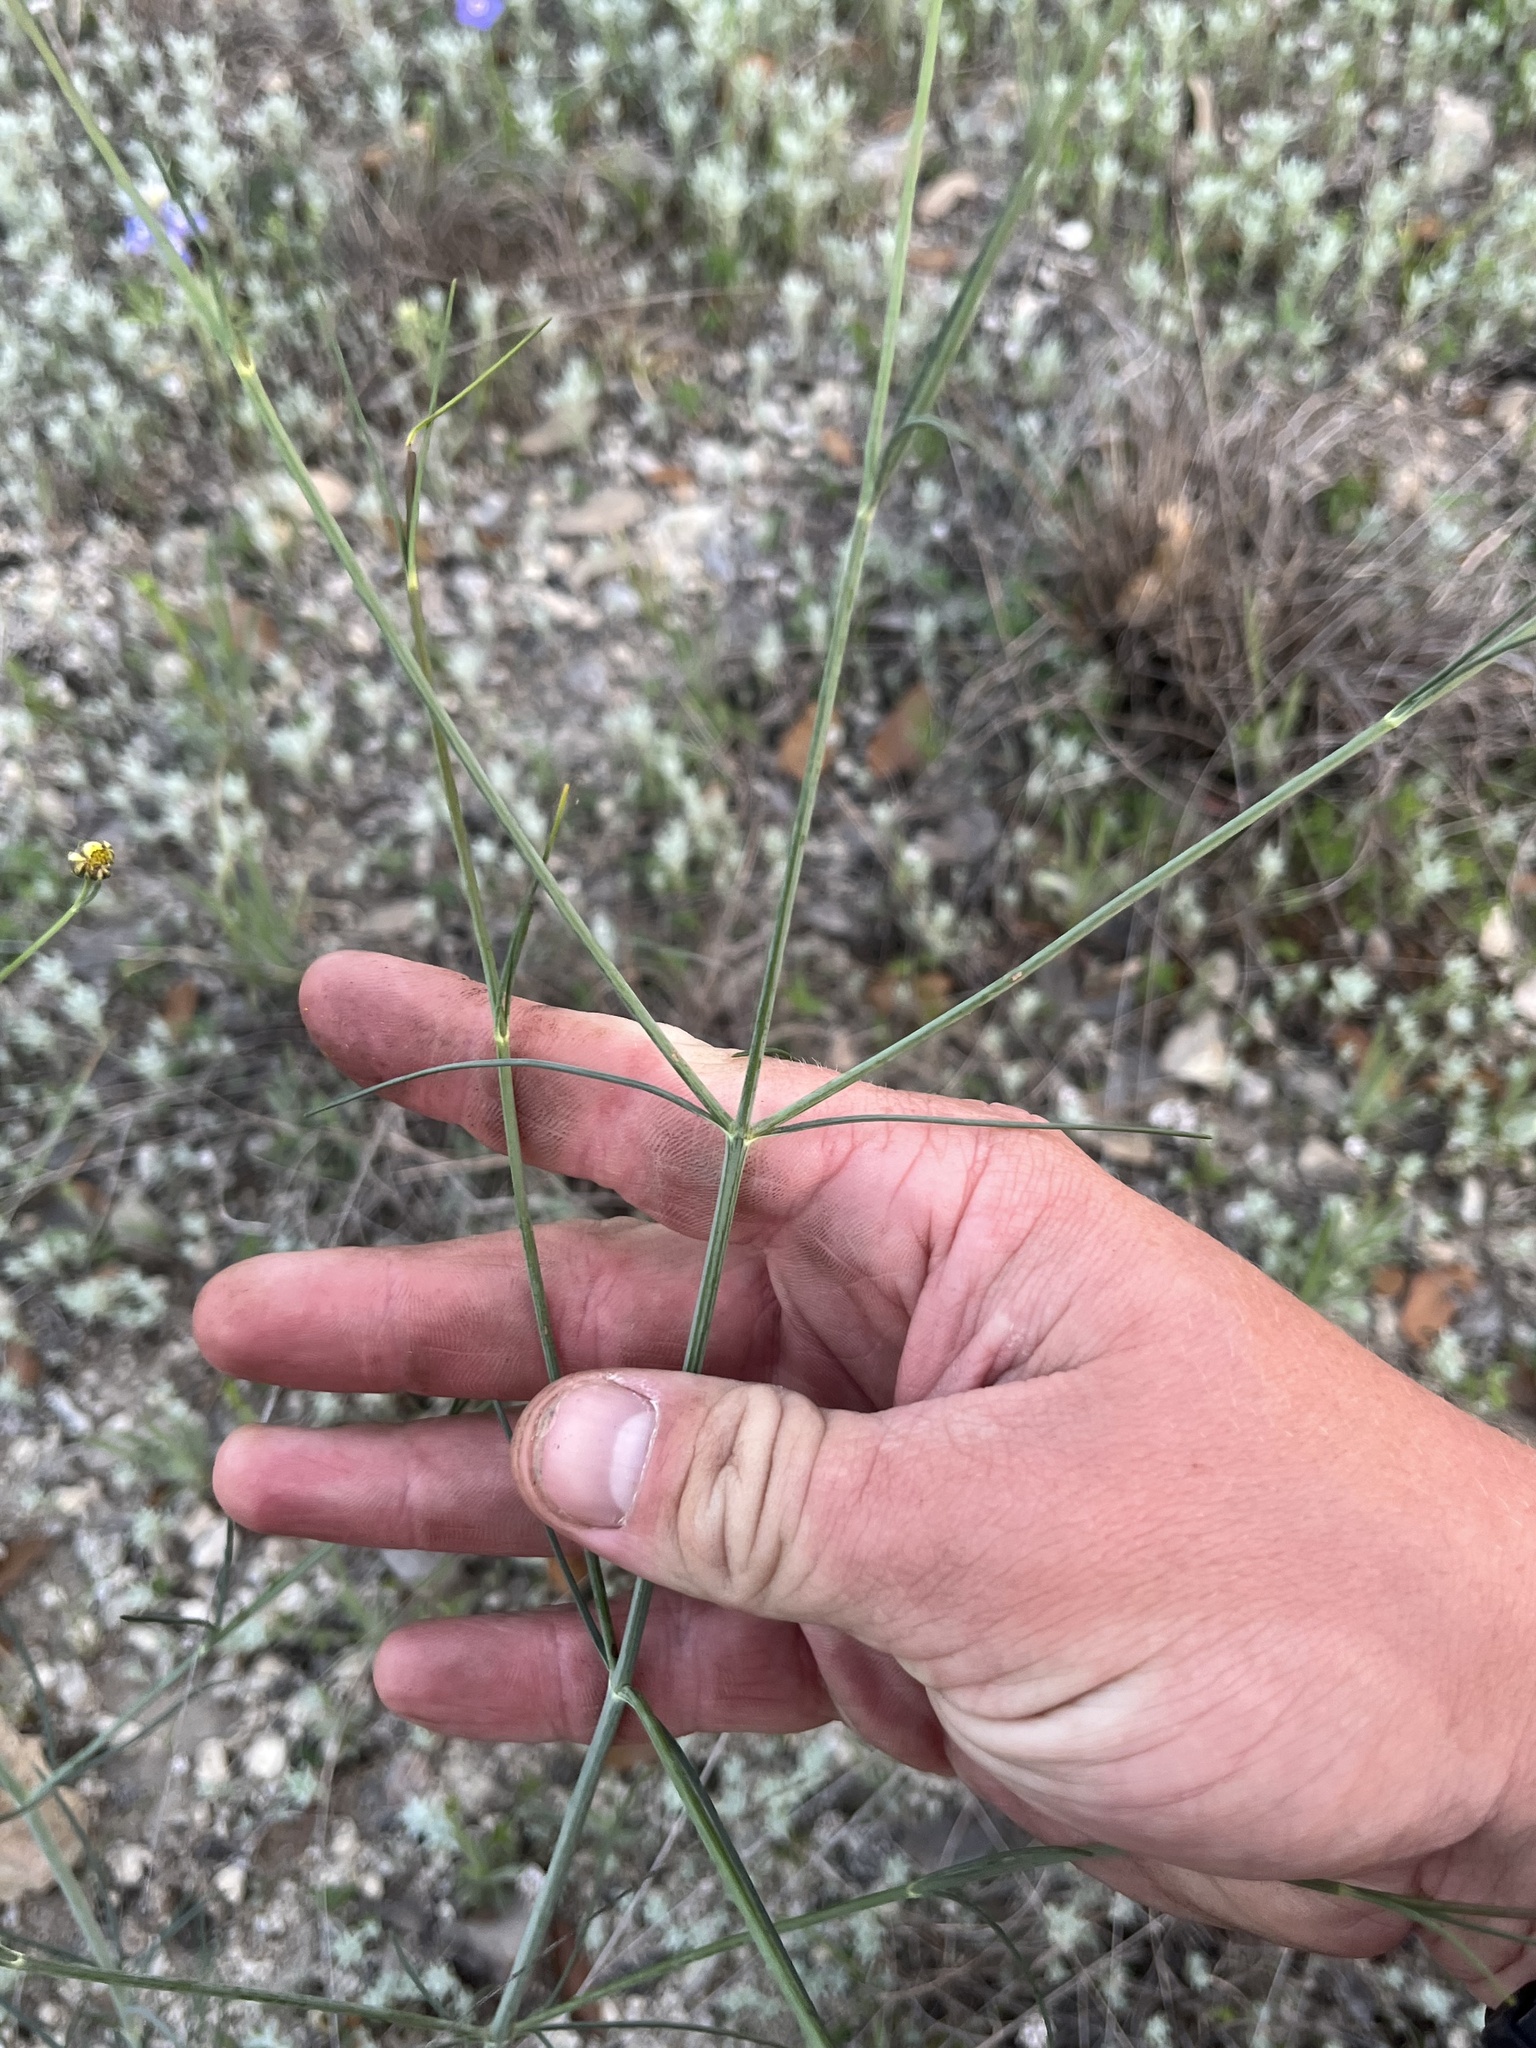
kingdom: Plantae
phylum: Tracheophyta
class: Magnoliopsida
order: Asterales
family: Asteraceae
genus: Thelesperma
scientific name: Thelesperma simplicifolium
